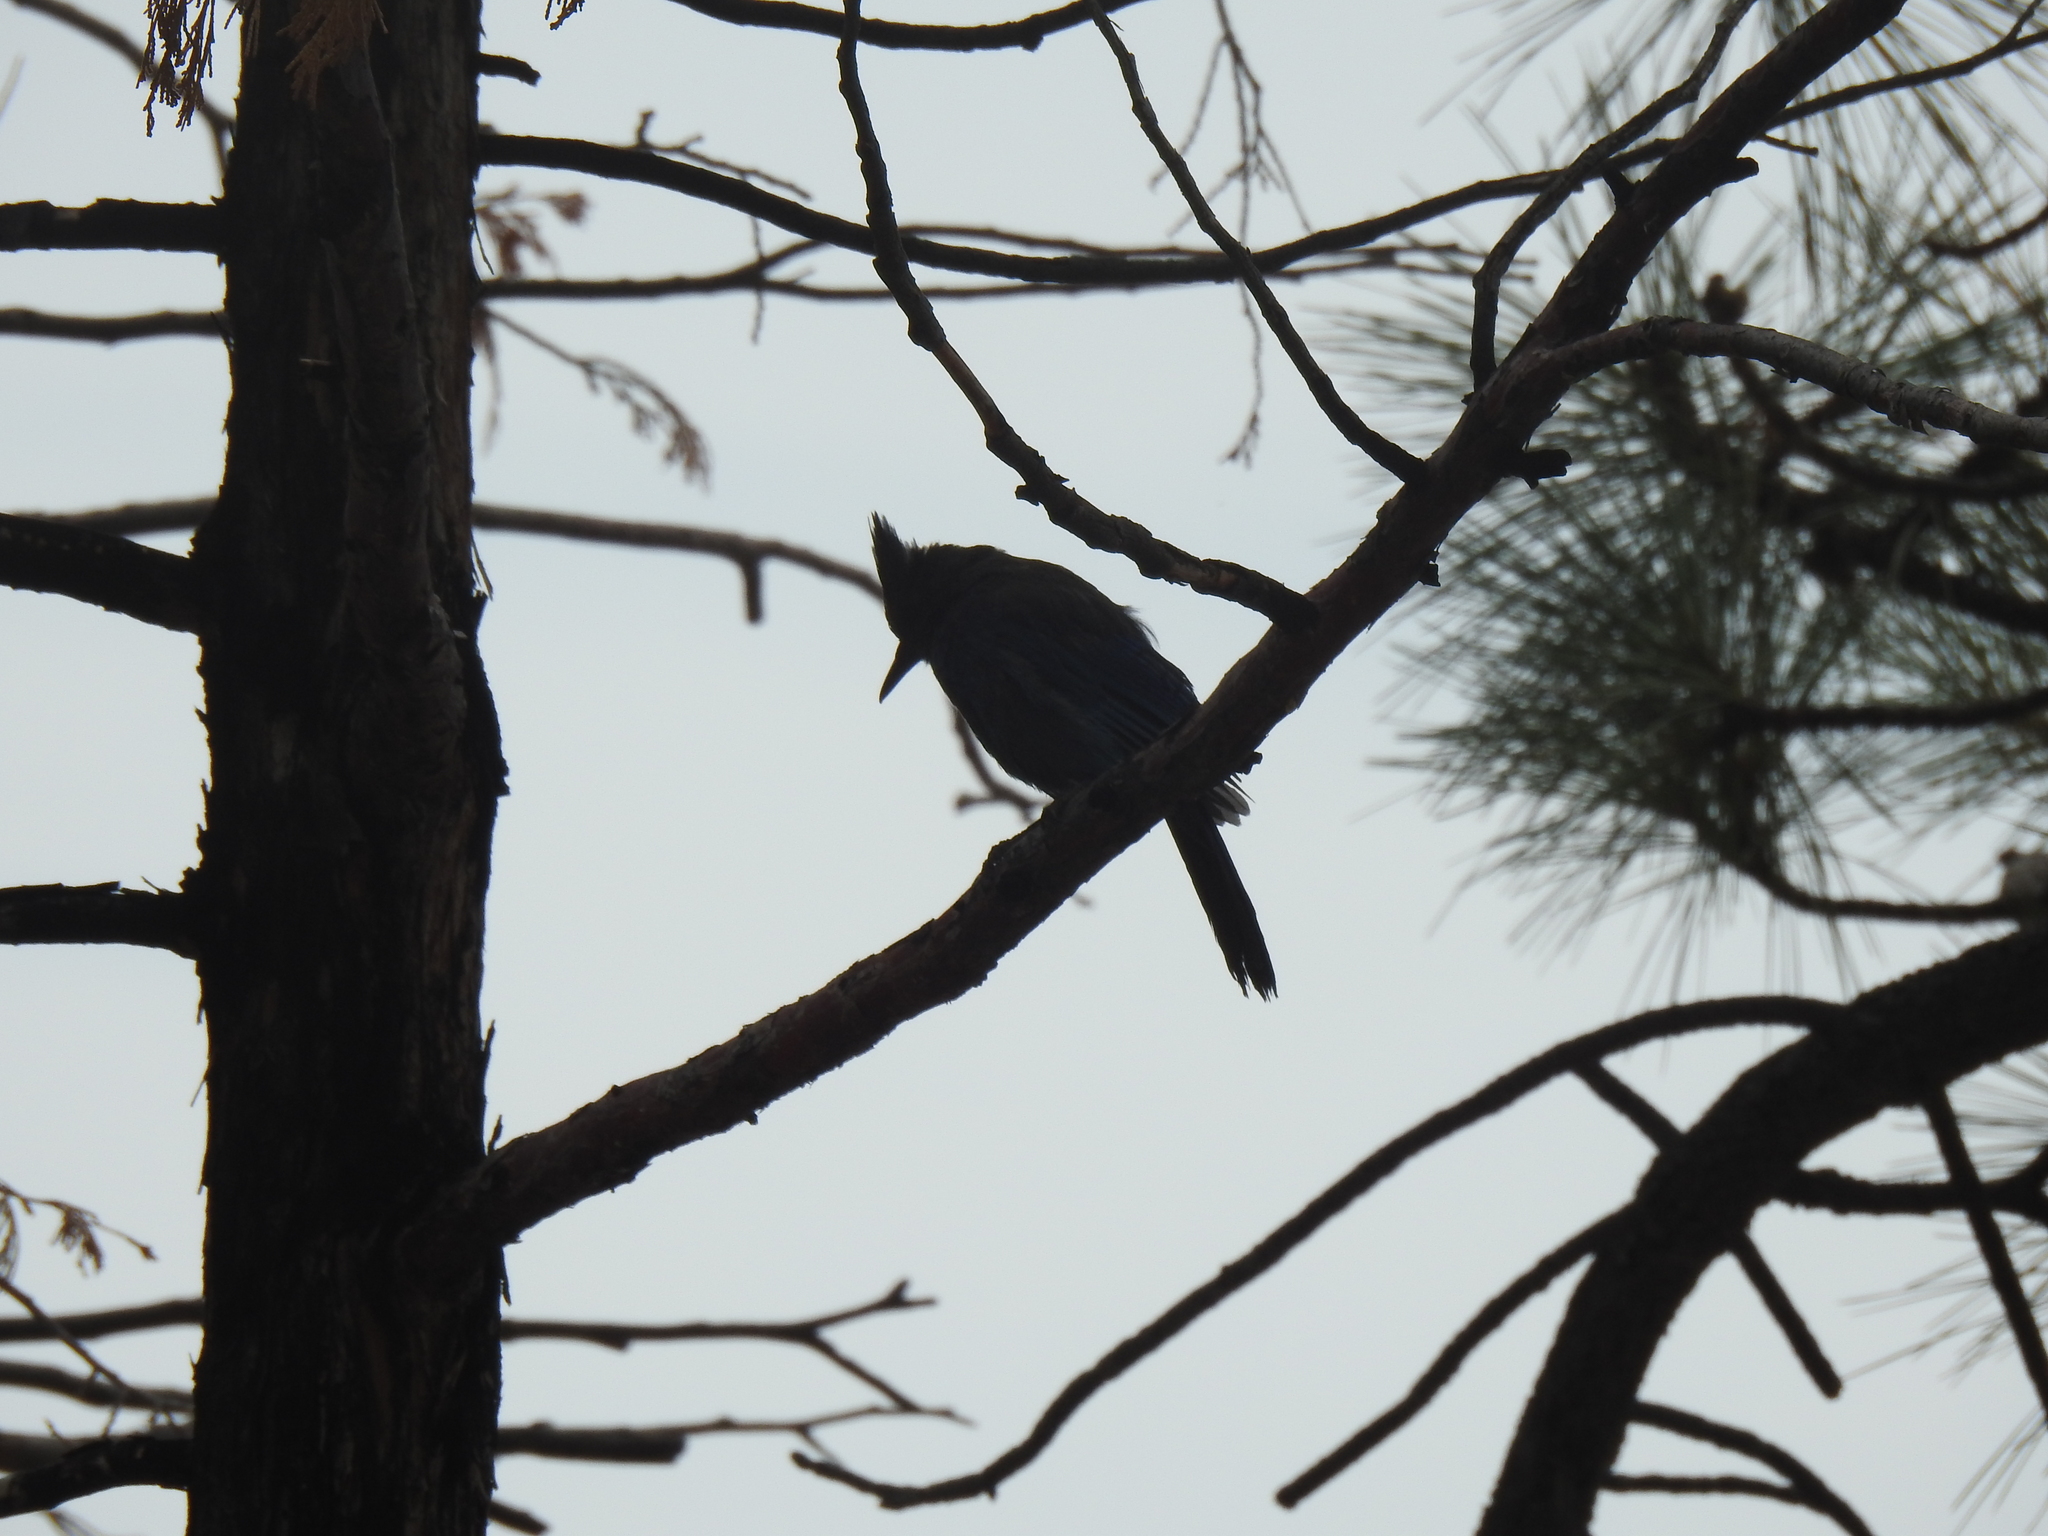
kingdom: Animalia
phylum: Chordata
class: Aves
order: Passeriformes
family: Corvidae
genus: Cyanocitta
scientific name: Cyanocitta stelleri
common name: Steller's jay
